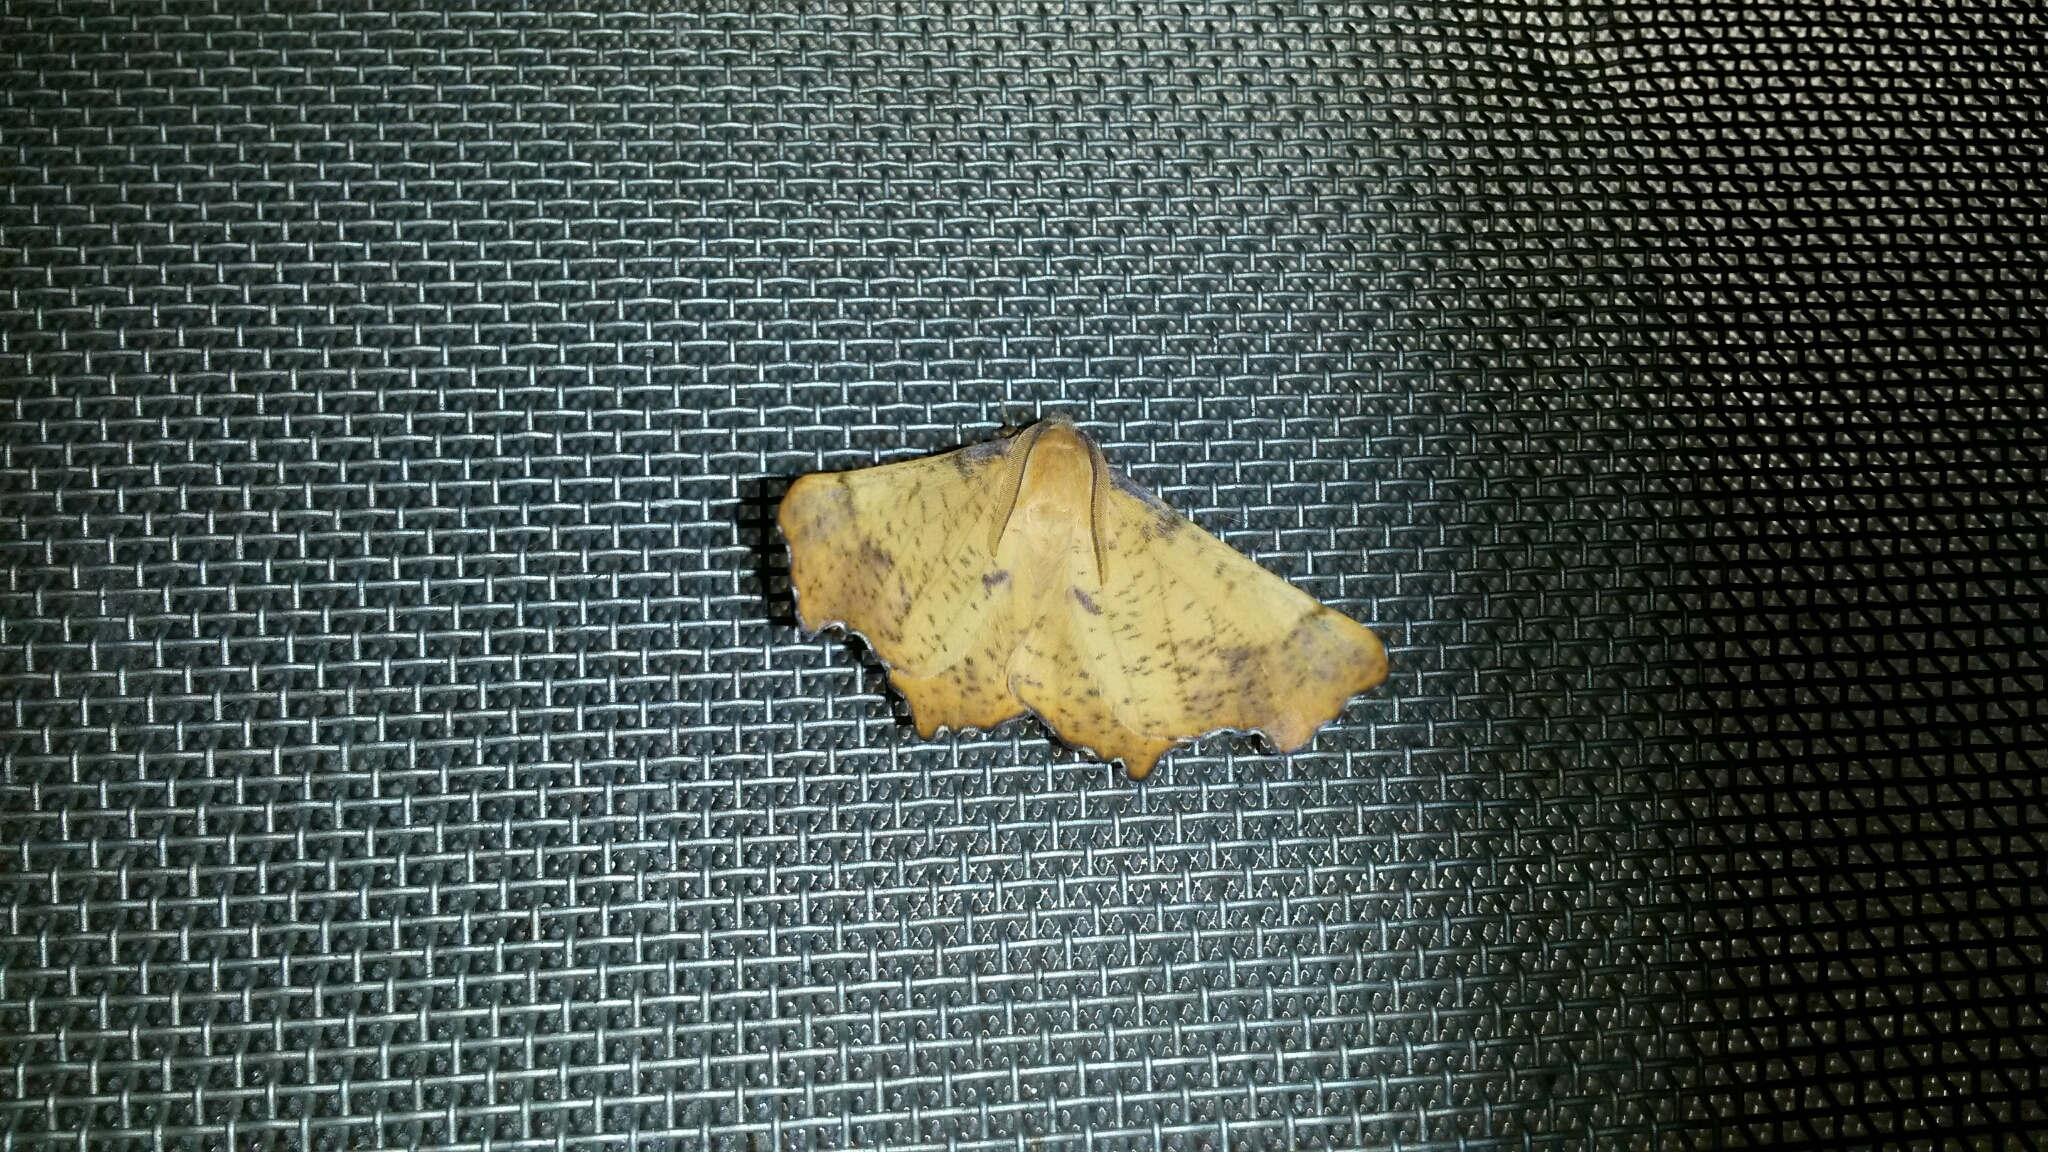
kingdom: Animalia
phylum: Arthropoda
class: Insecta
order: Lepidoptera
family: Geometridae
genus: Ennomos
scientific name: Ennomos magnaria
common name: Maple spanworm
